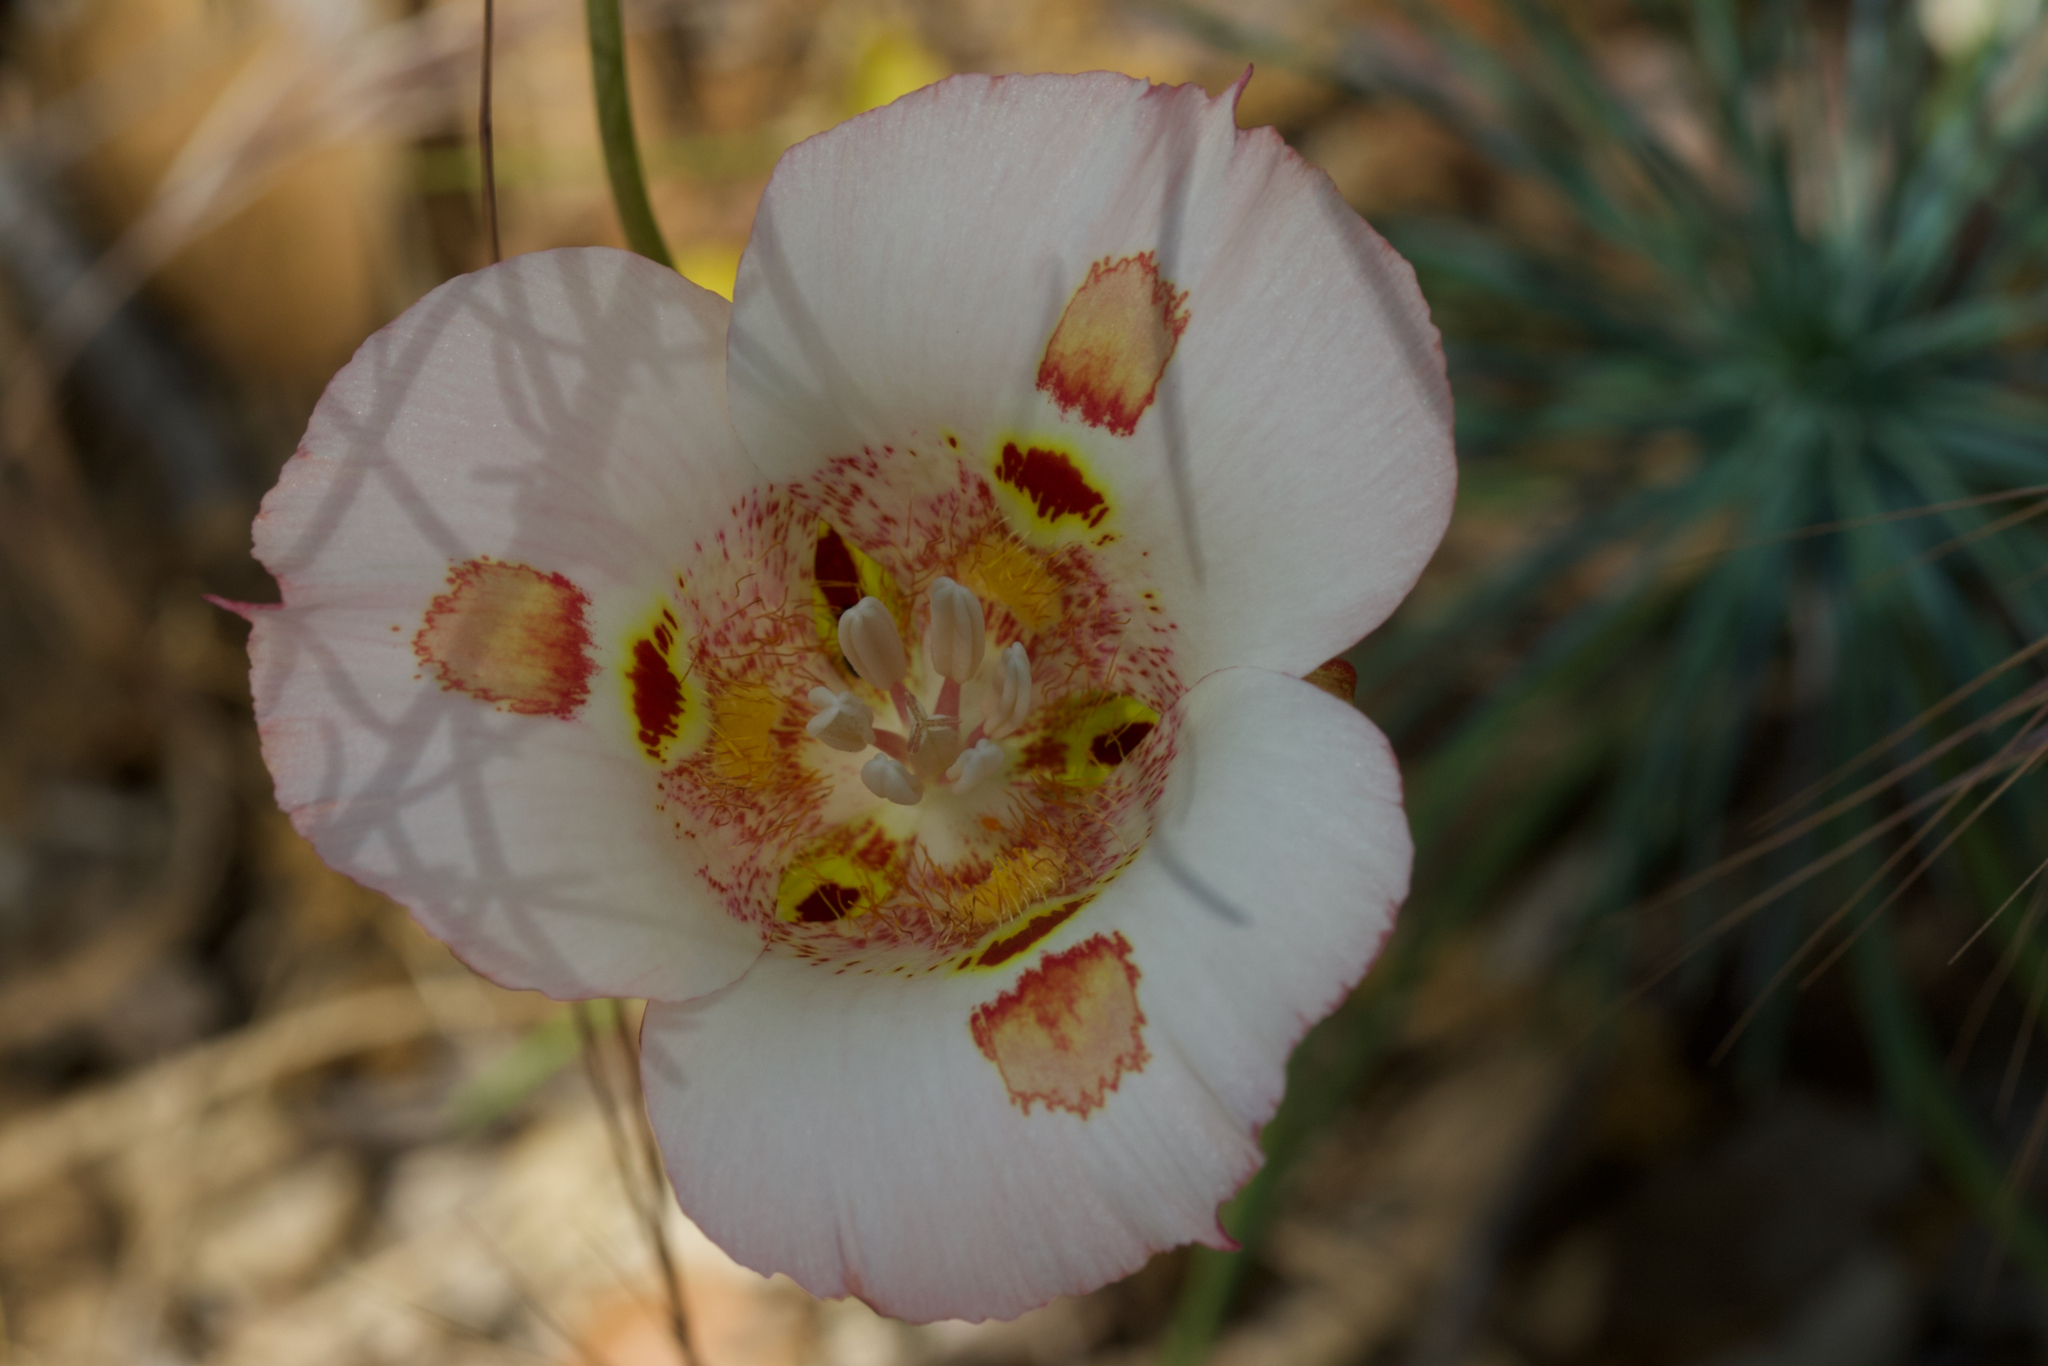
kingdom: Plantae
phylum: Tracheophyta
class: Liliopsida
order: Liliales
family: Liliaceae
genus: Calochortus
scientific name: Calochortus venustus
